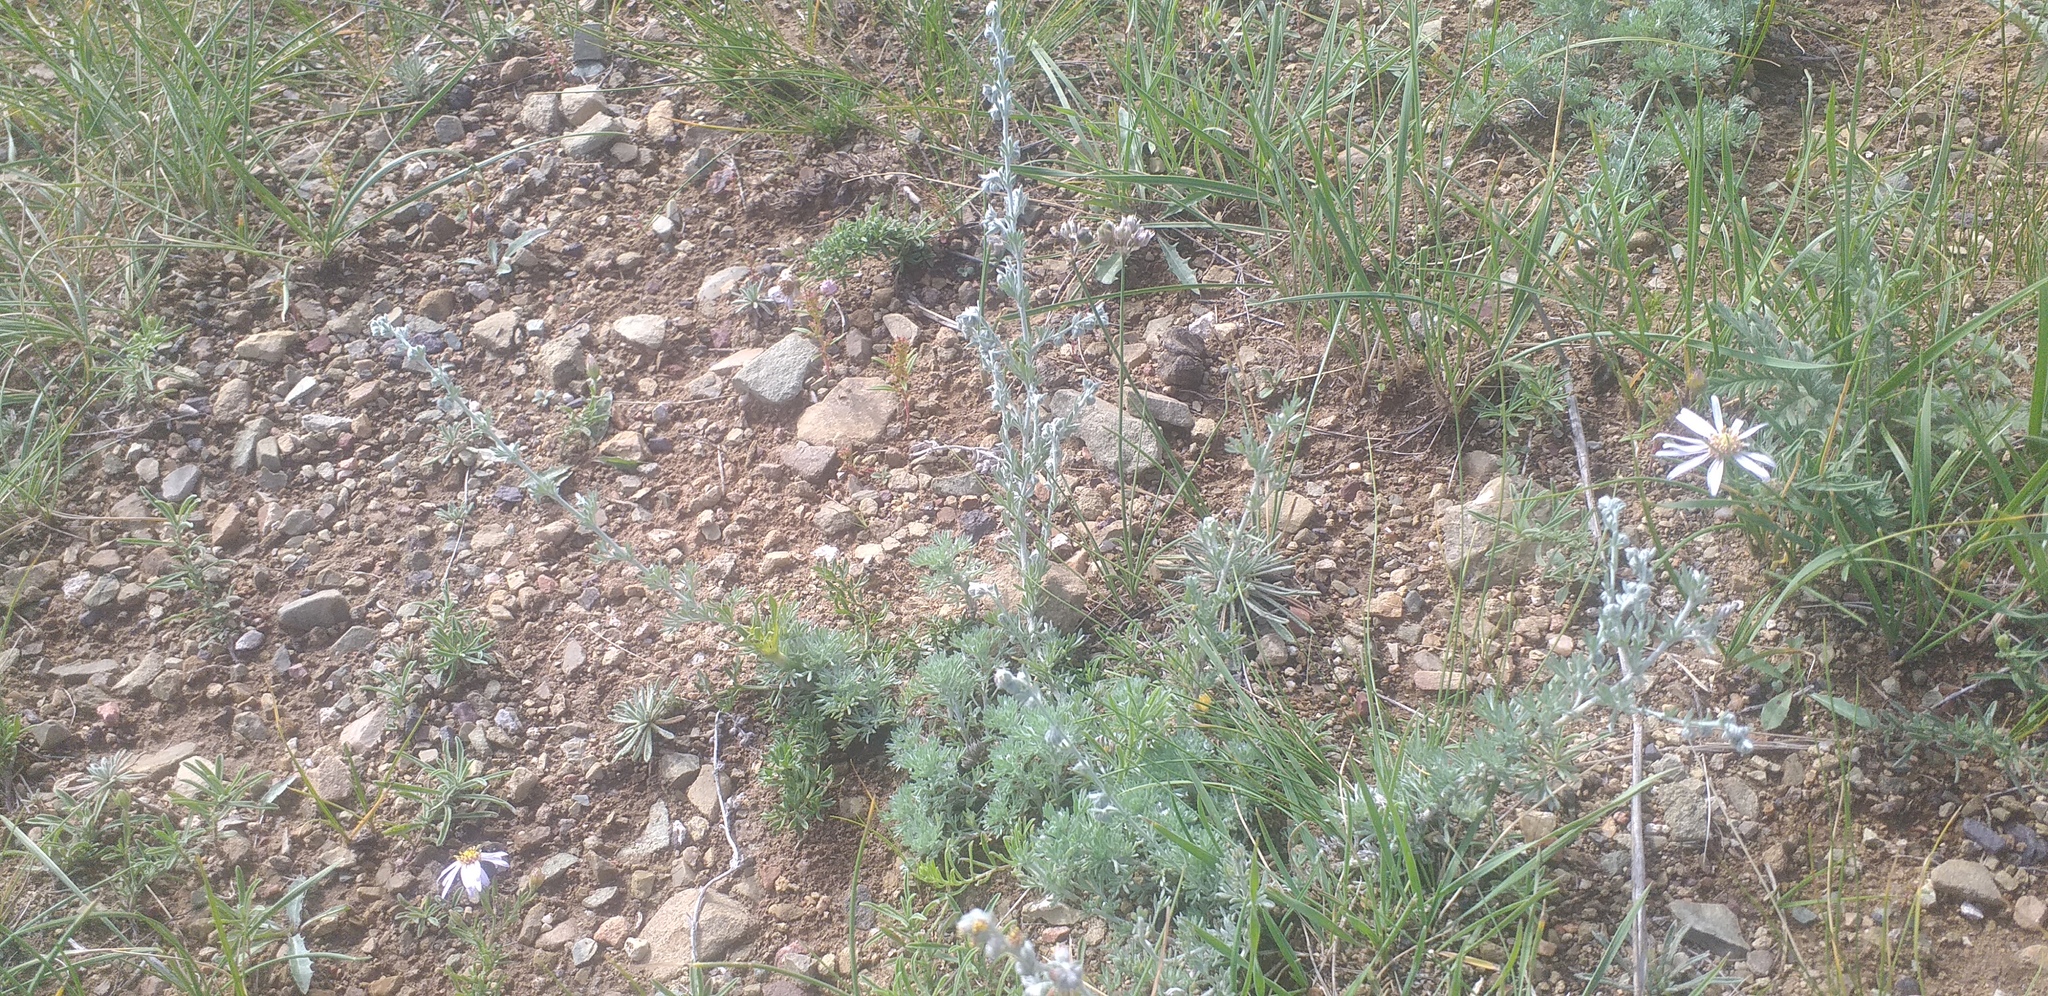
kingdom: Plantae
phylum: Tracheophyta
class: Magnoliopsida
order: Asterales
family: Asteraceae
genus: Artemisia
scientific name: Artemisia frigida
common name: Prairie sagewort
